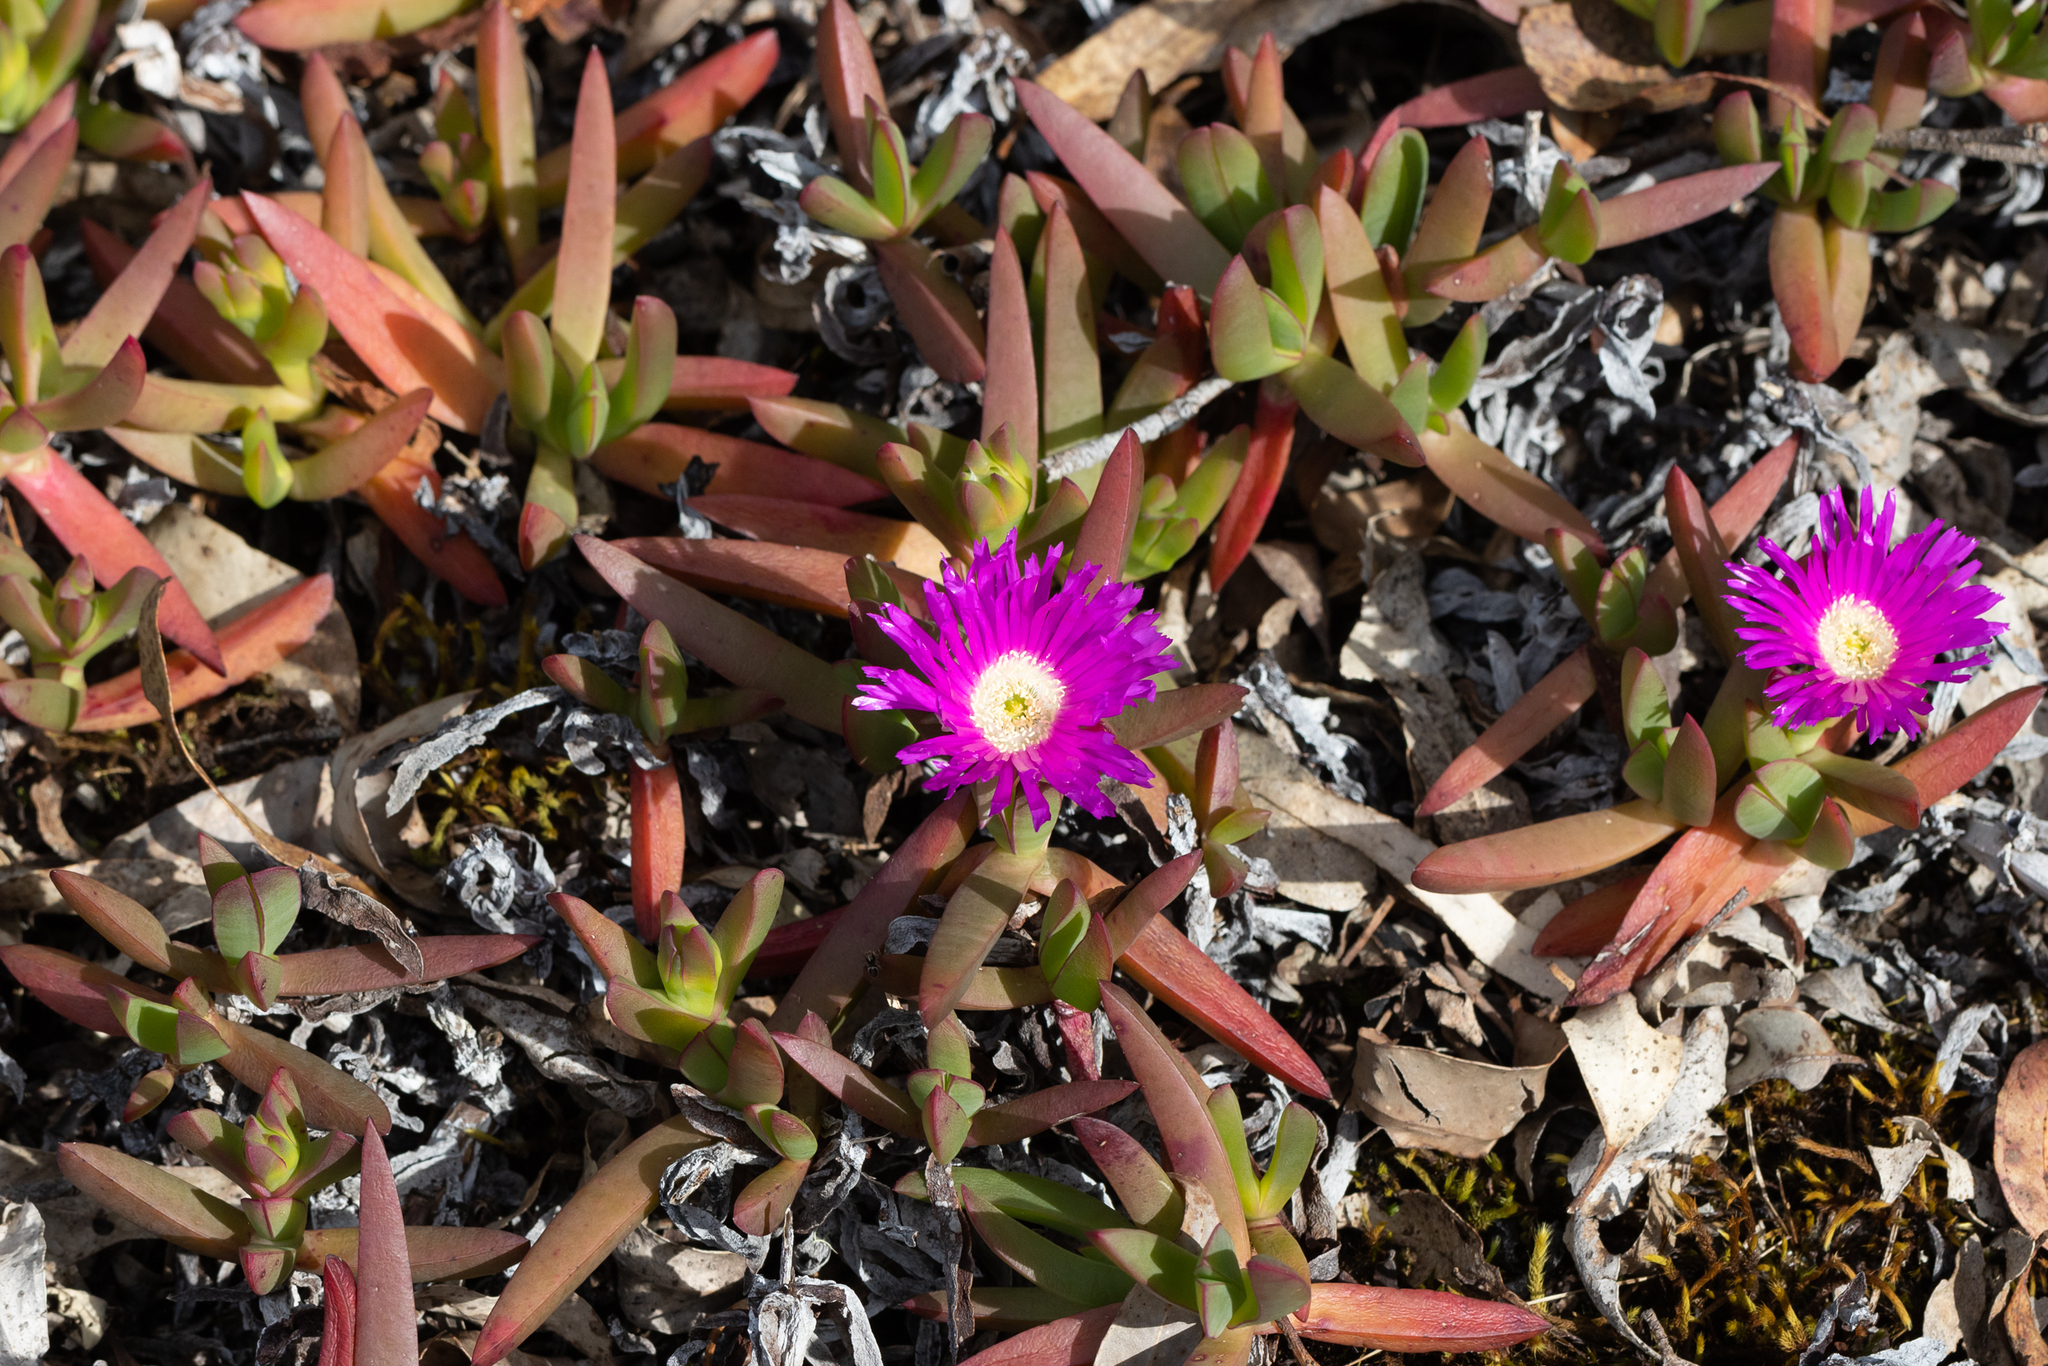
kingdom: Plantae
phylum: Tracheophyta
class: Magnoliopsida
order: Caryophyllales
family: Aizoaceae
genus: Carpobrotus
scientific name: Carpobrotus modestus
